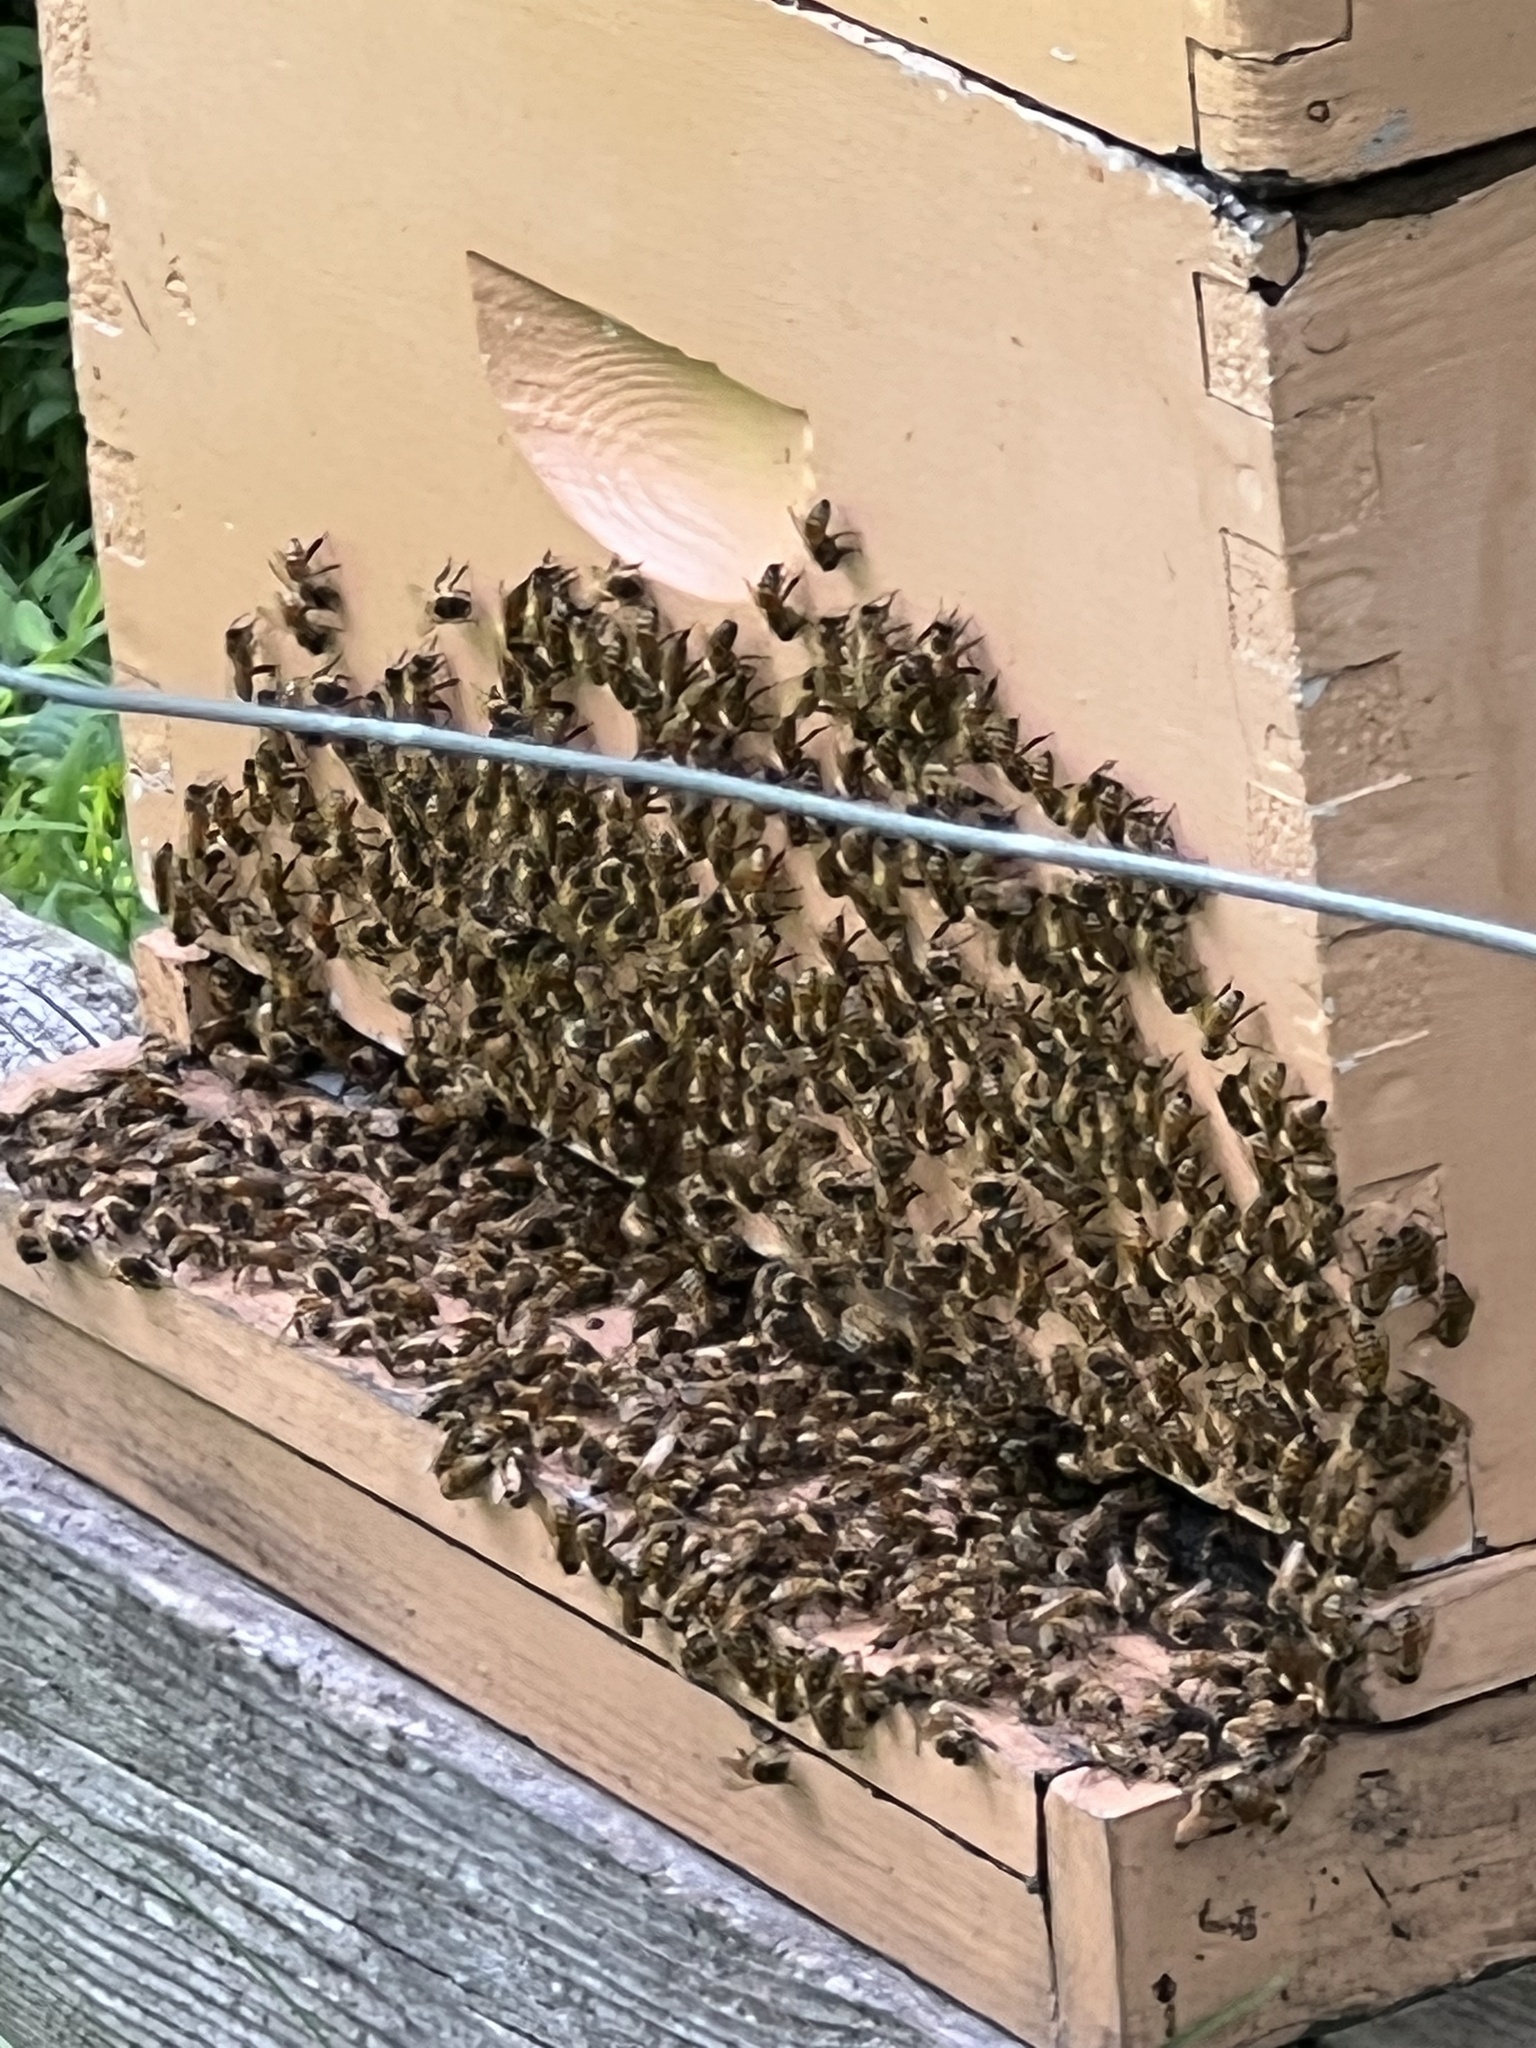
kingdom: Animalia
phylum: Arthropoda
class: Insecta
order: Hymenoptera
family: Apidae
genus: Apis
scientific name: Apis mellifera
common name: Honey bee
